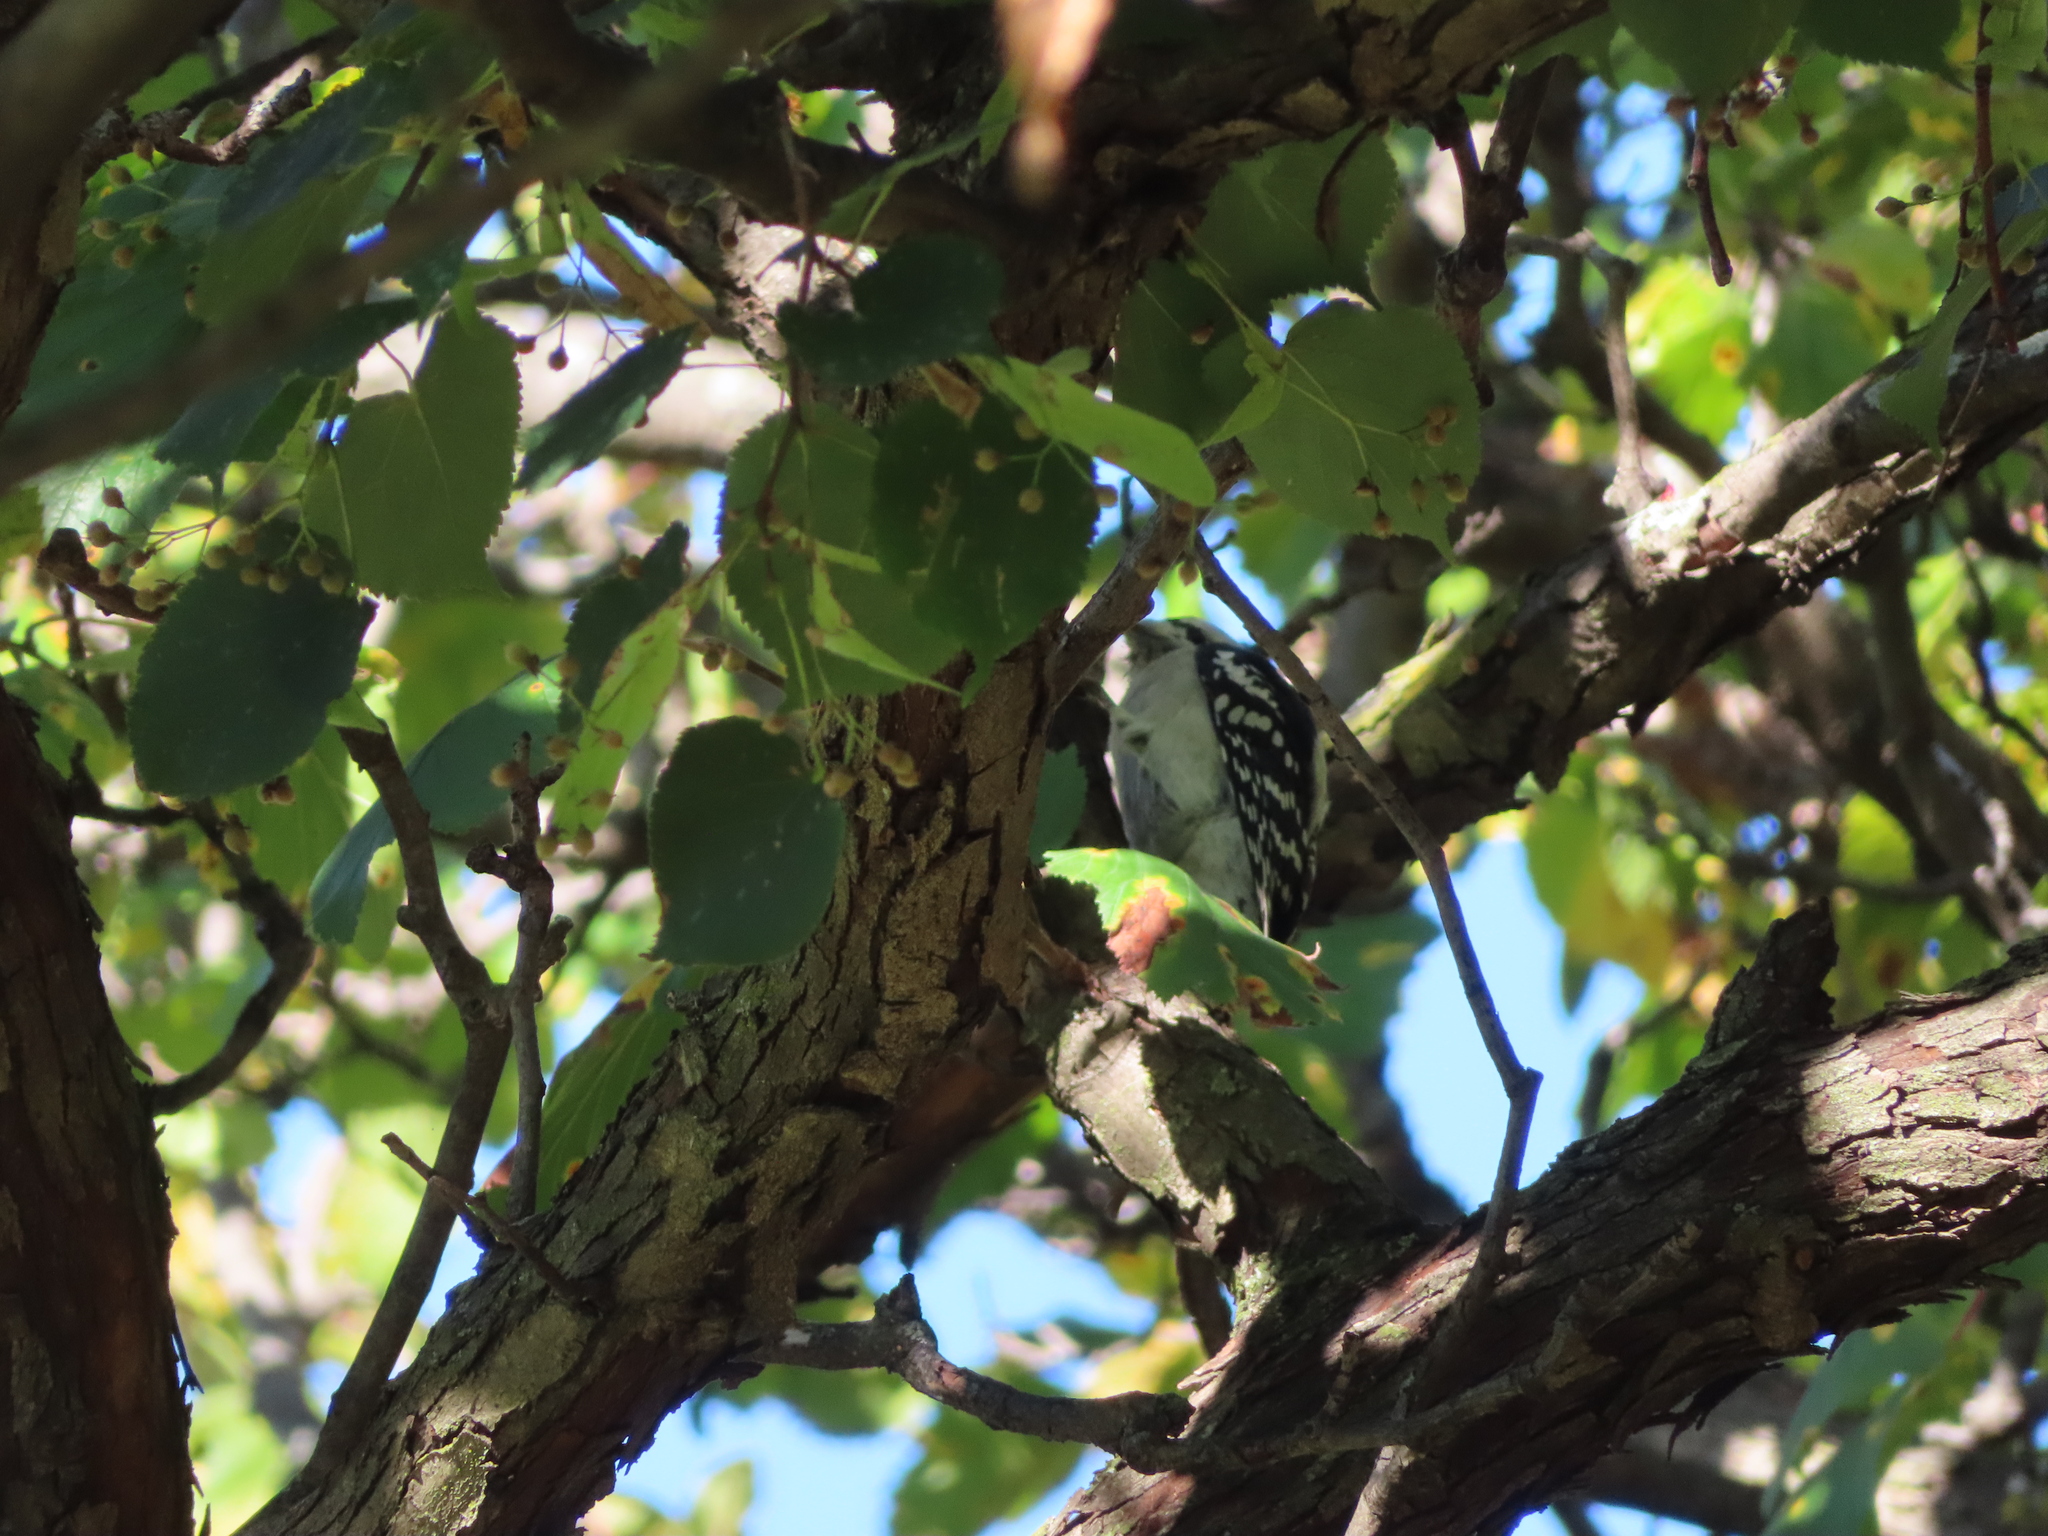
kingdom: Animalia
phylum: Chordata
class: Aves
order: Piciformes
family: Picidae
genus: Dryobates
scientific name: Dryobates pubescens
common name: Downy woodpecker
